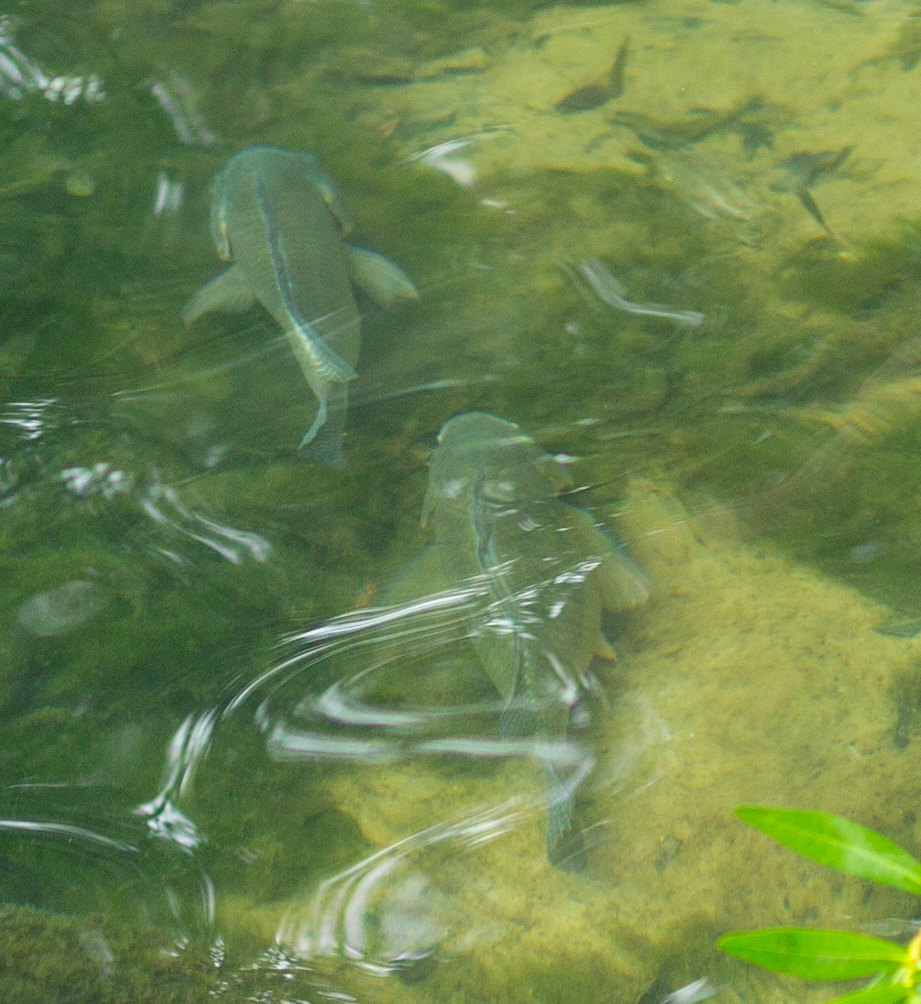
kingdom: Animalia
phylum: Chordata
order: Perciformes
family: Cichlidae
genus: Oreochromis
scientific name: Oreochromis aureus
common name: Blue tilapia
